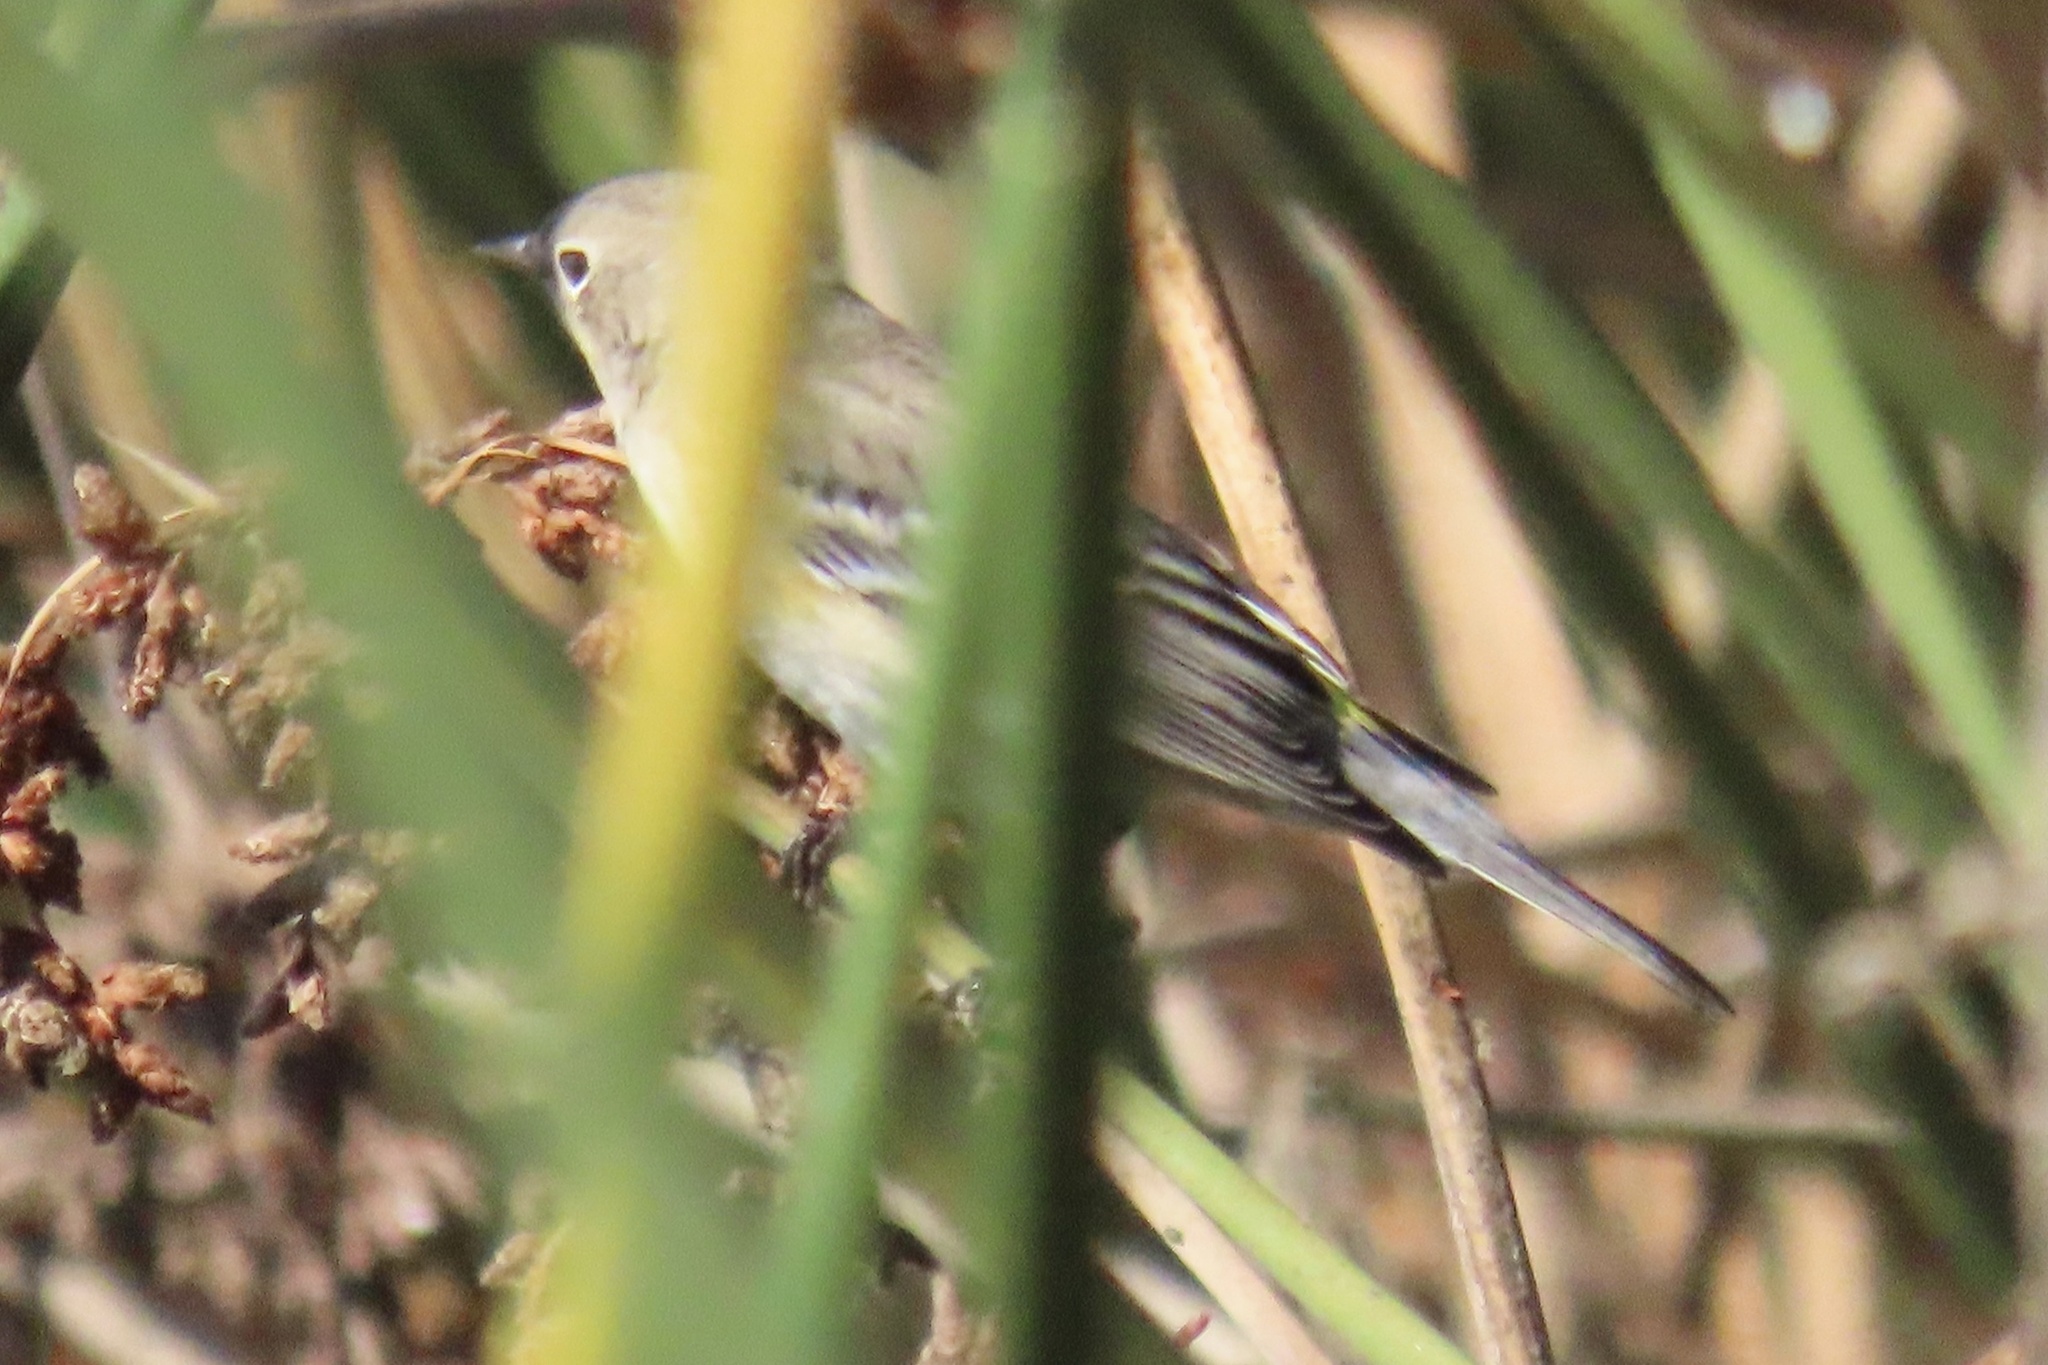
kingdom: Animalia
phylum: Chordata
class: Aves
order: Passeriformes
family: Parulidae
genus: Setophaga
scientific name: Setophaga coronata
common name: Myrtle warbler
